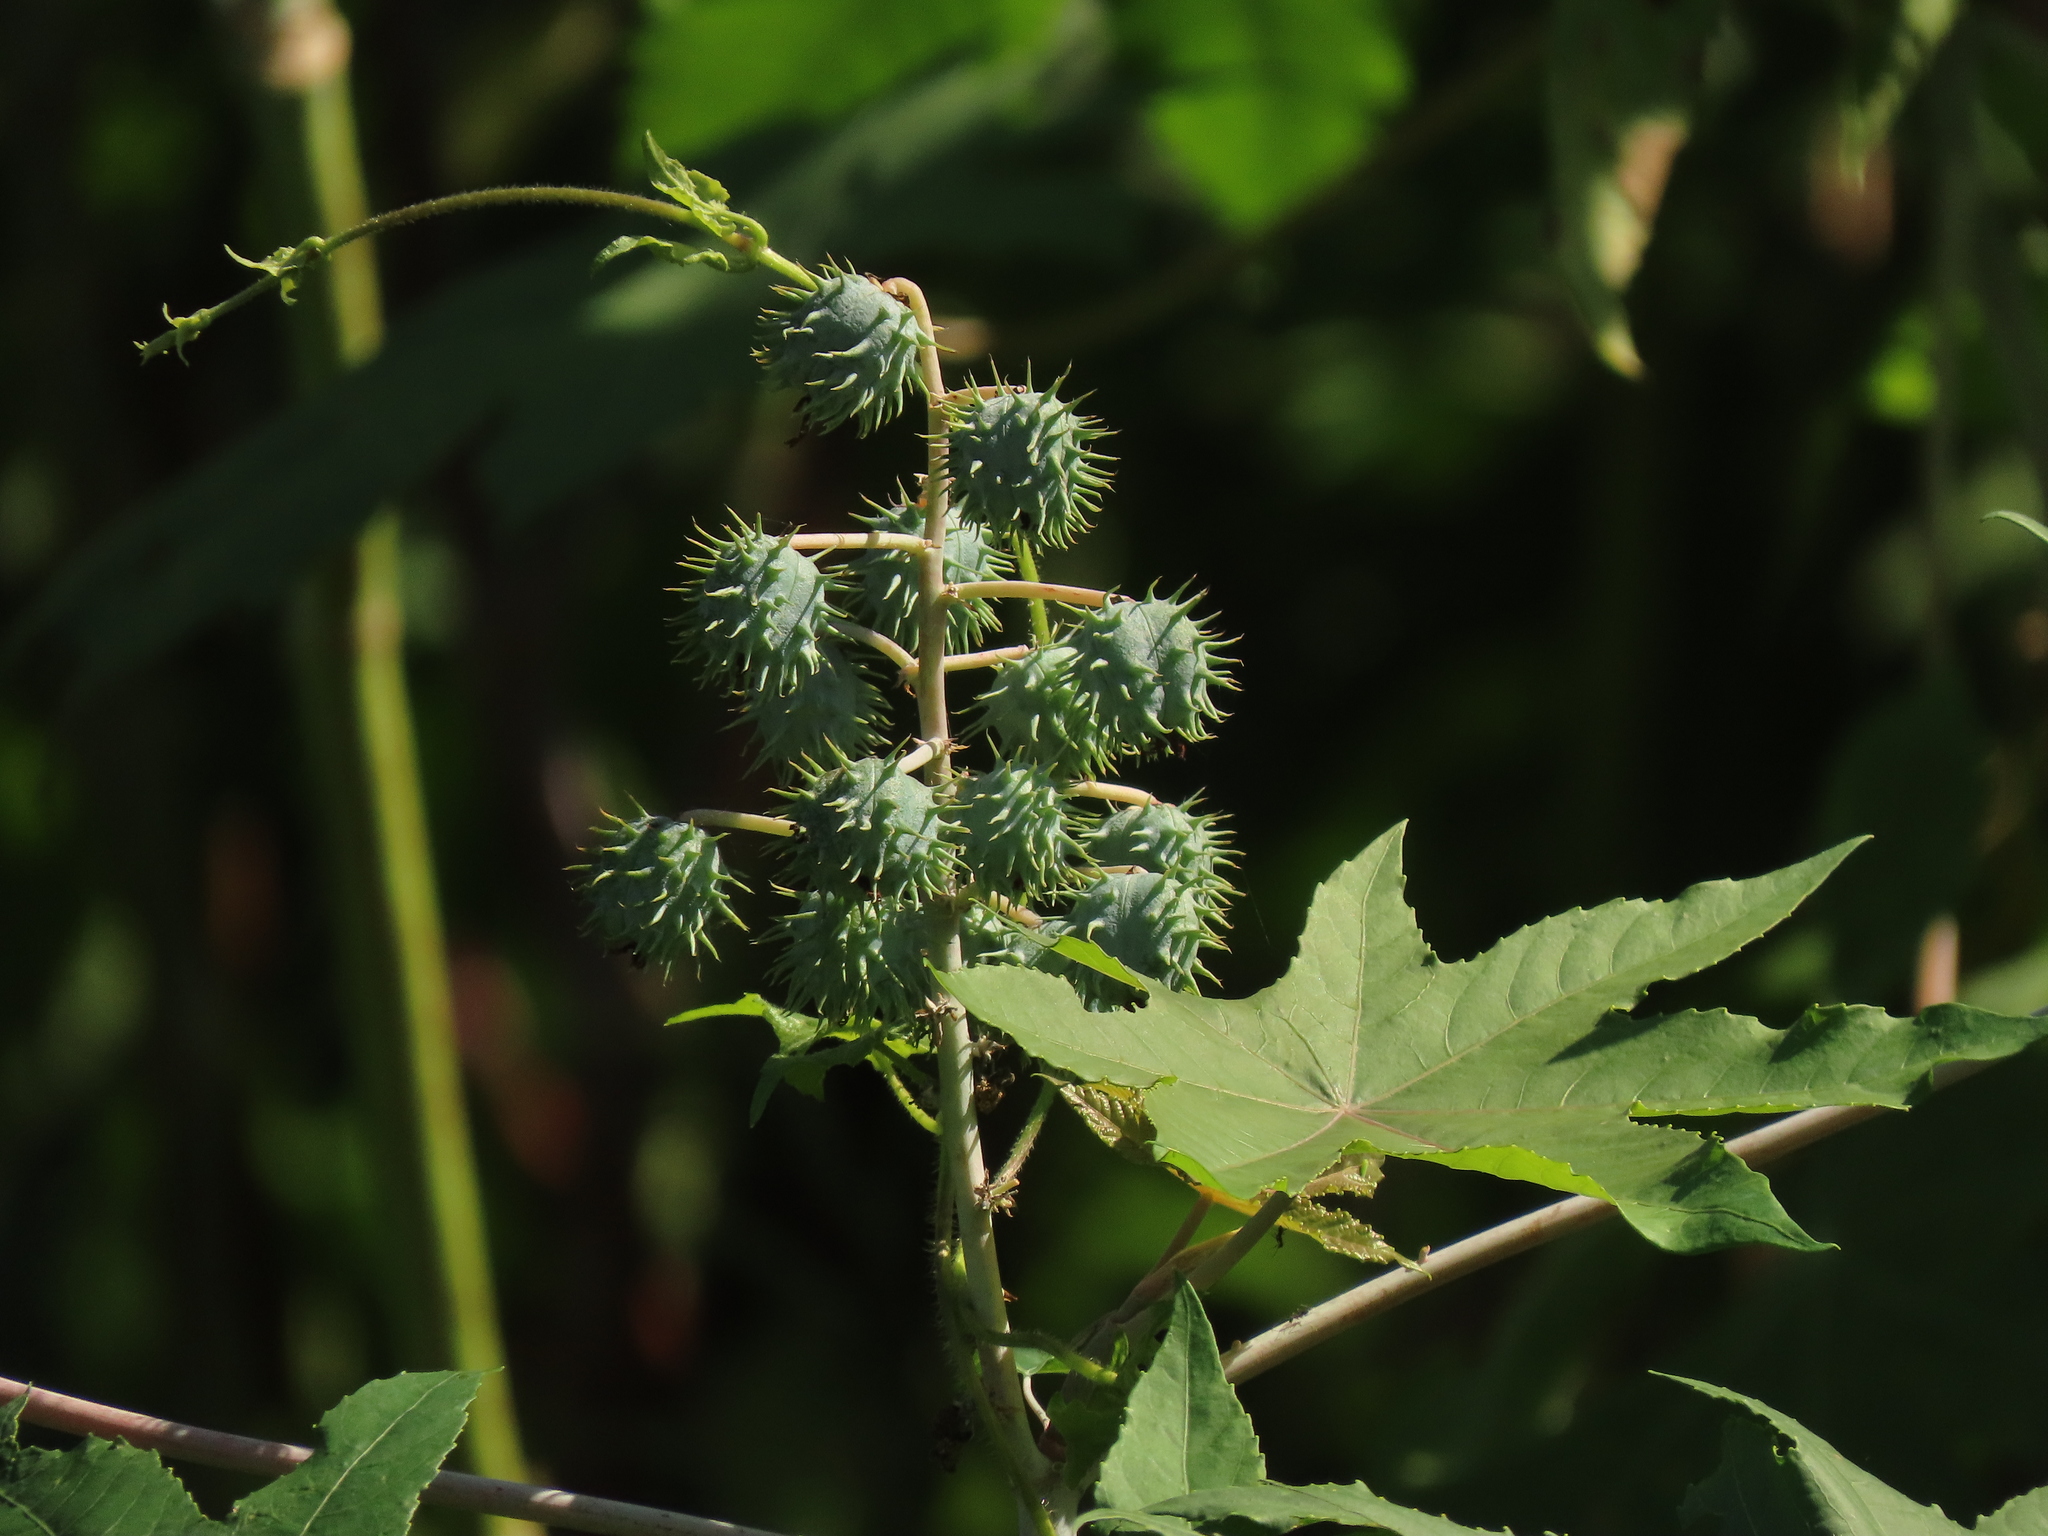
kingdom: Plantae
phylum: Tracheophyta
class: Magnoliopsida
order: Malpighiales
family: Euphorbiaceae
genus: Ricinus
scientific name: Ricinus communis
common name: Castor-oil-plant
